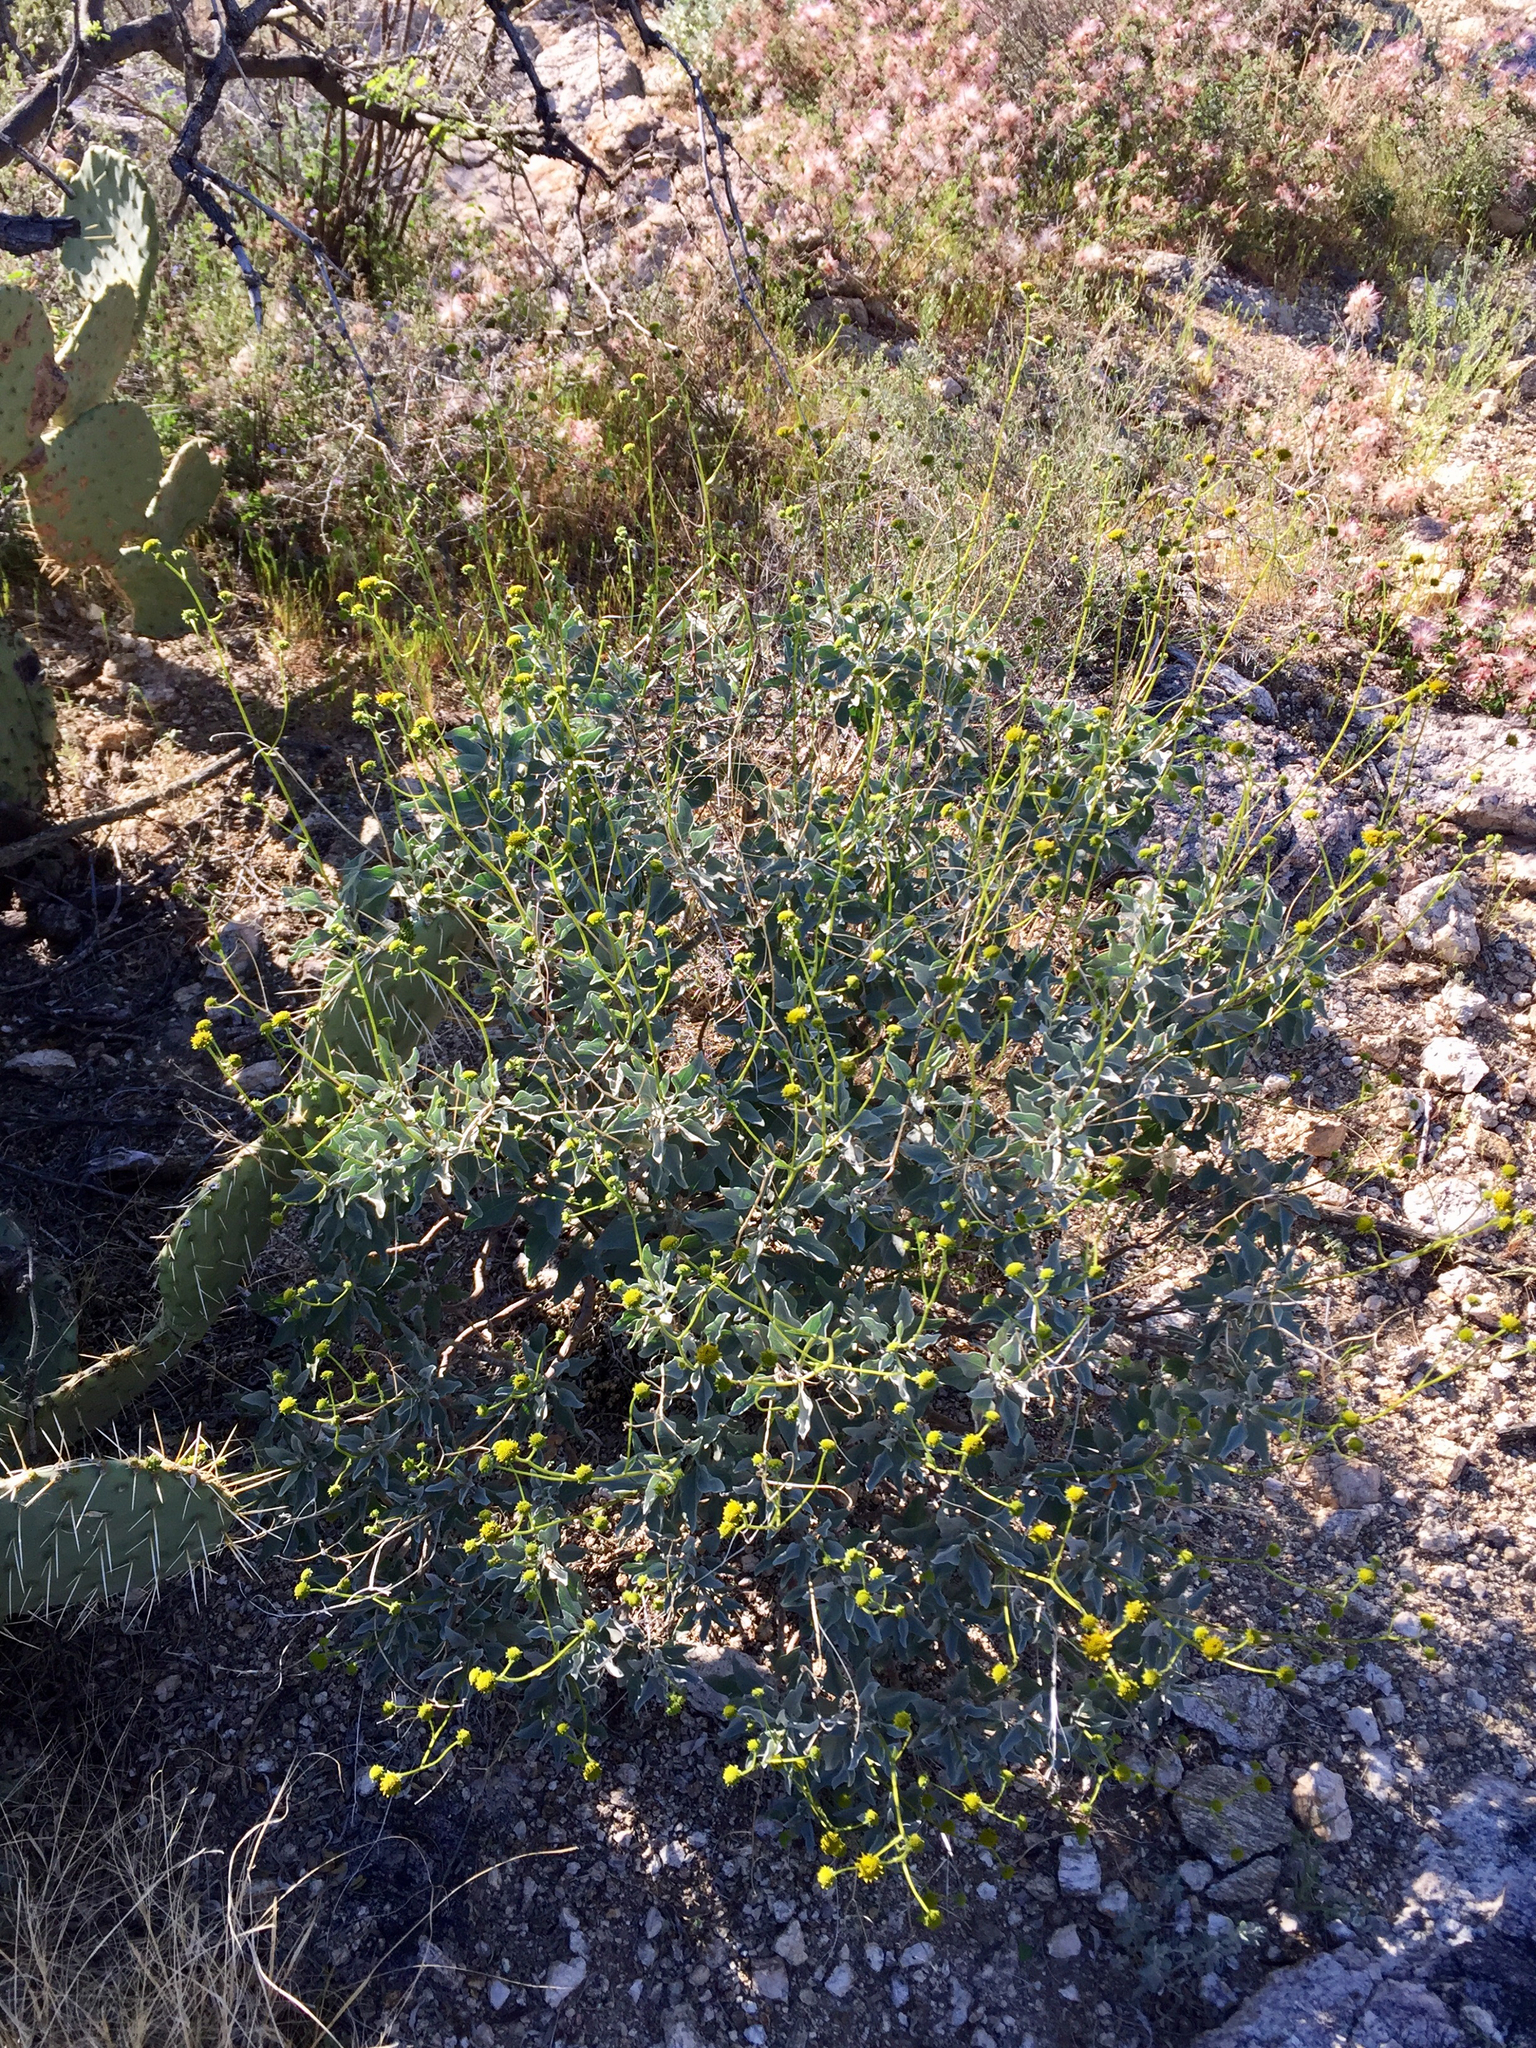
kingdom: Plantae
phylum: Tracheophyta
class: Magnoliopsida
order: Asterales
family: Asteraceae
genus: Encelia
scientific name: Encelia farinosa
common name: Brittlebush
